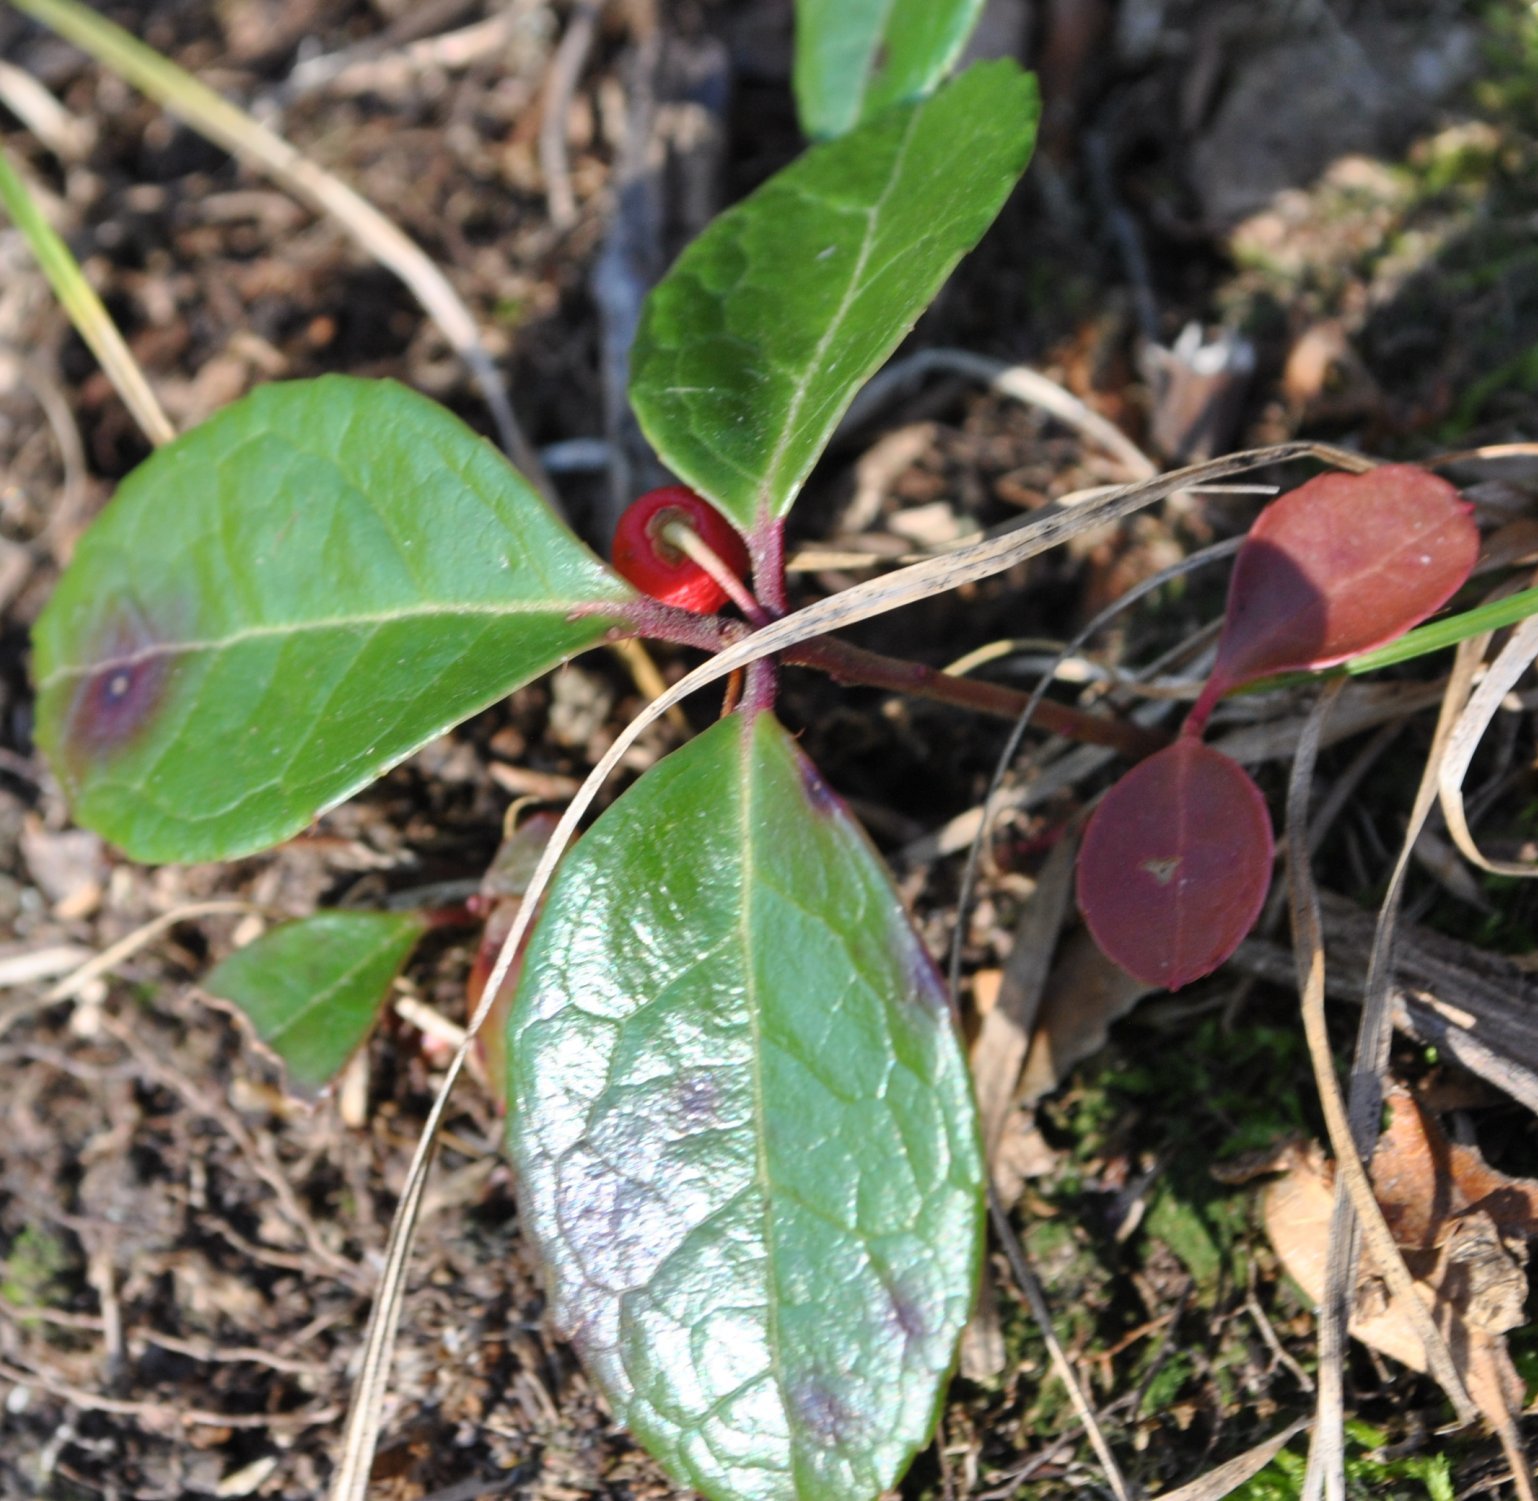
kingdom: Plantae
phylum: Tracheophyta
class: Magnoliopsida
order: Ericales
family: Ericaceae
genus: Gaultheria
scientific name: Gaultheria procumbens
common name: Checkerberry
